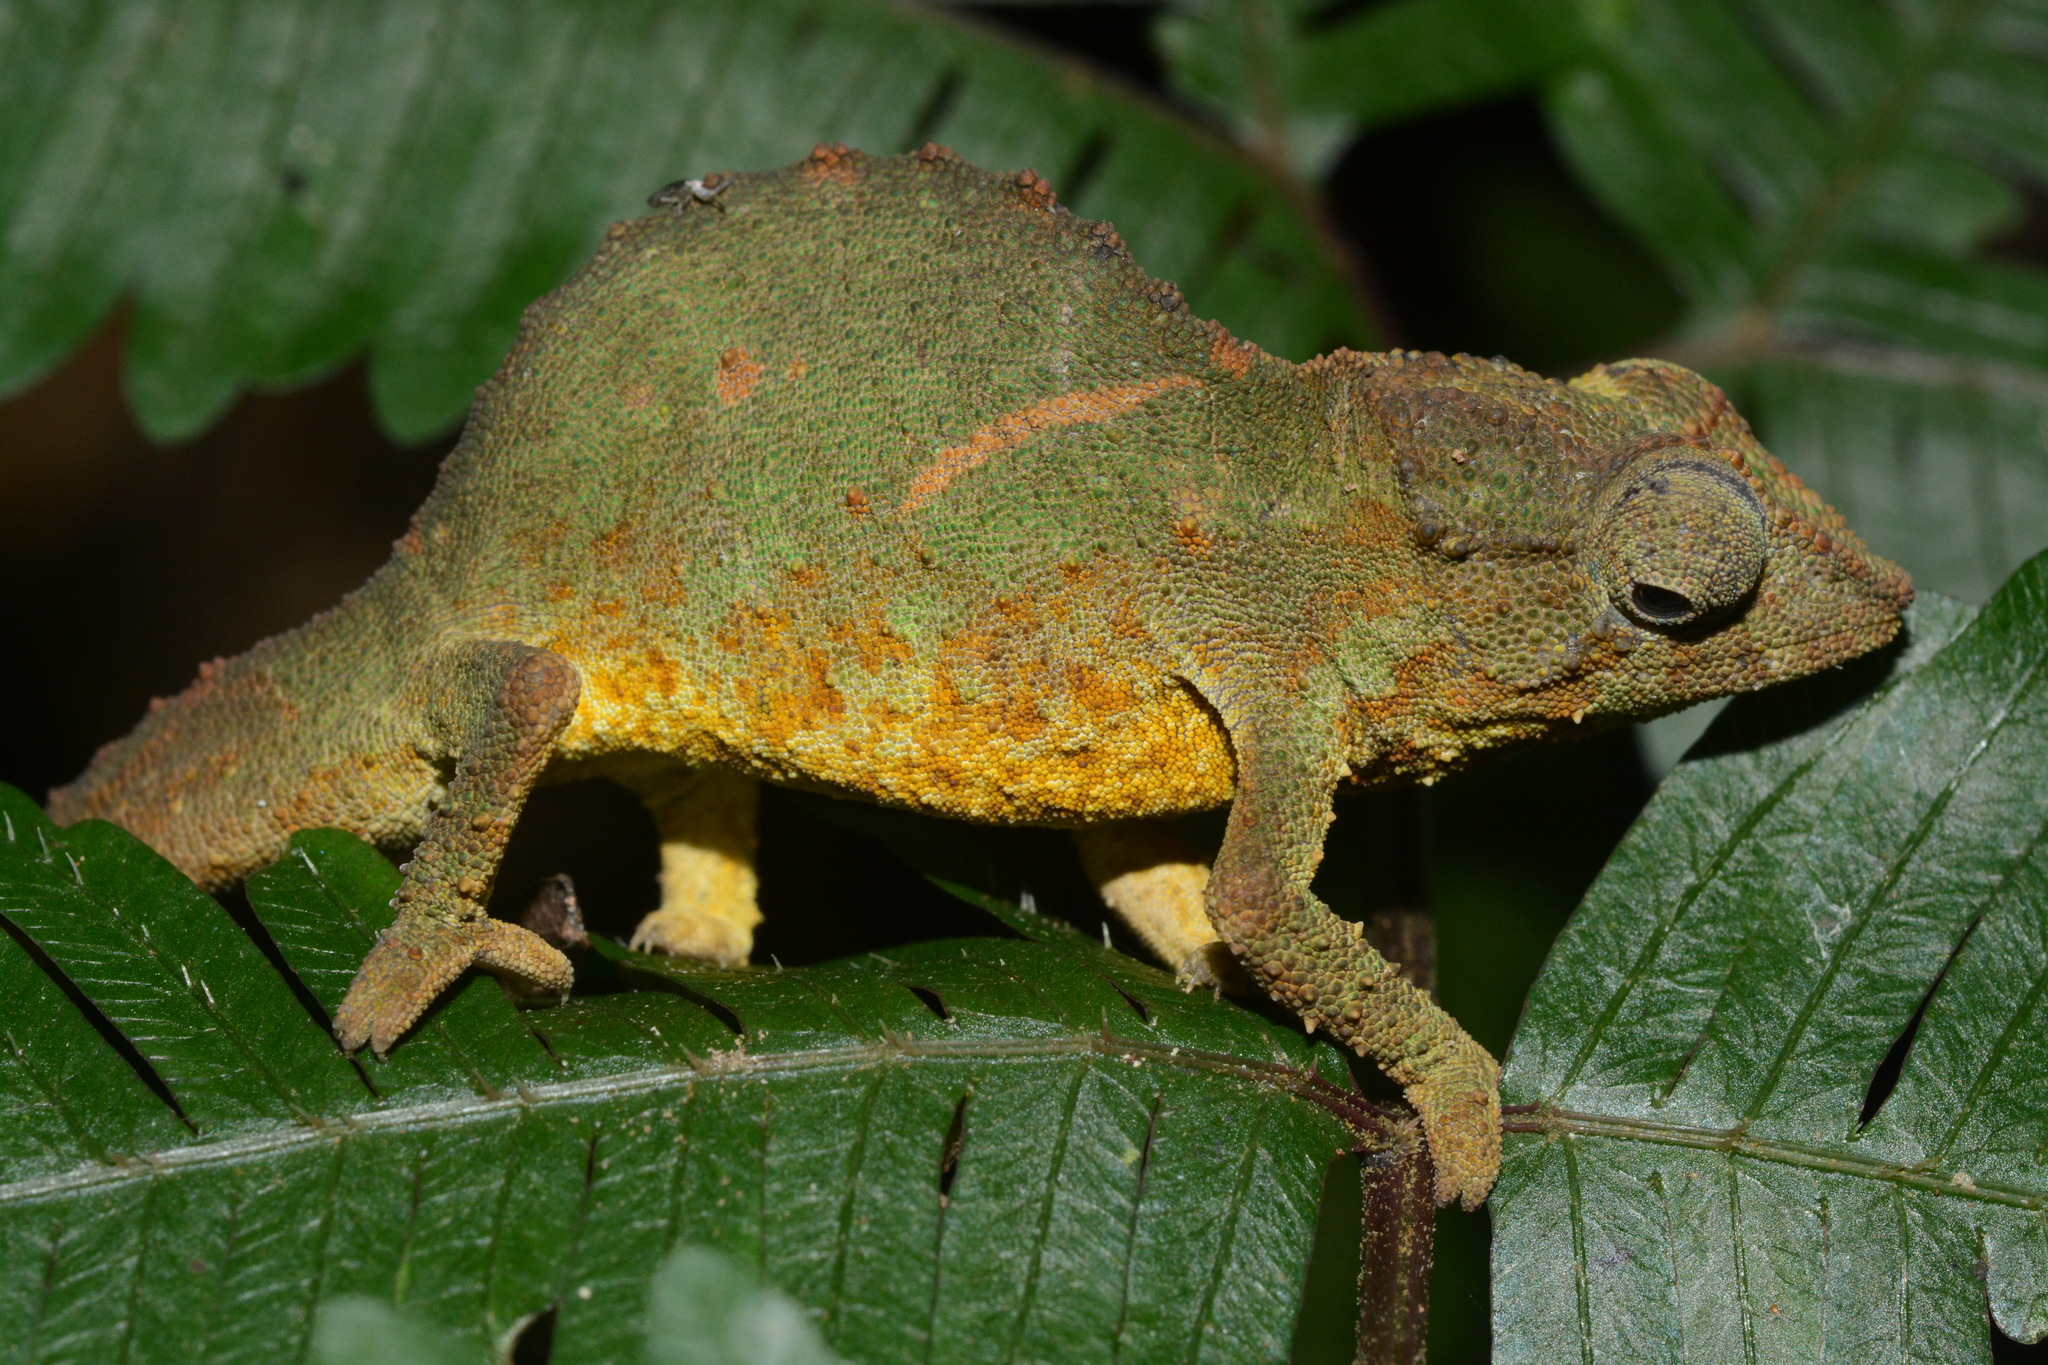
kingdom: Animalia
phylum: Chordata
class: Squamata
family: Chamaeleonidae
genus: Rhampholeon
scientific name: Rhampholeon viridis
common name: Green pygmy chameleon
